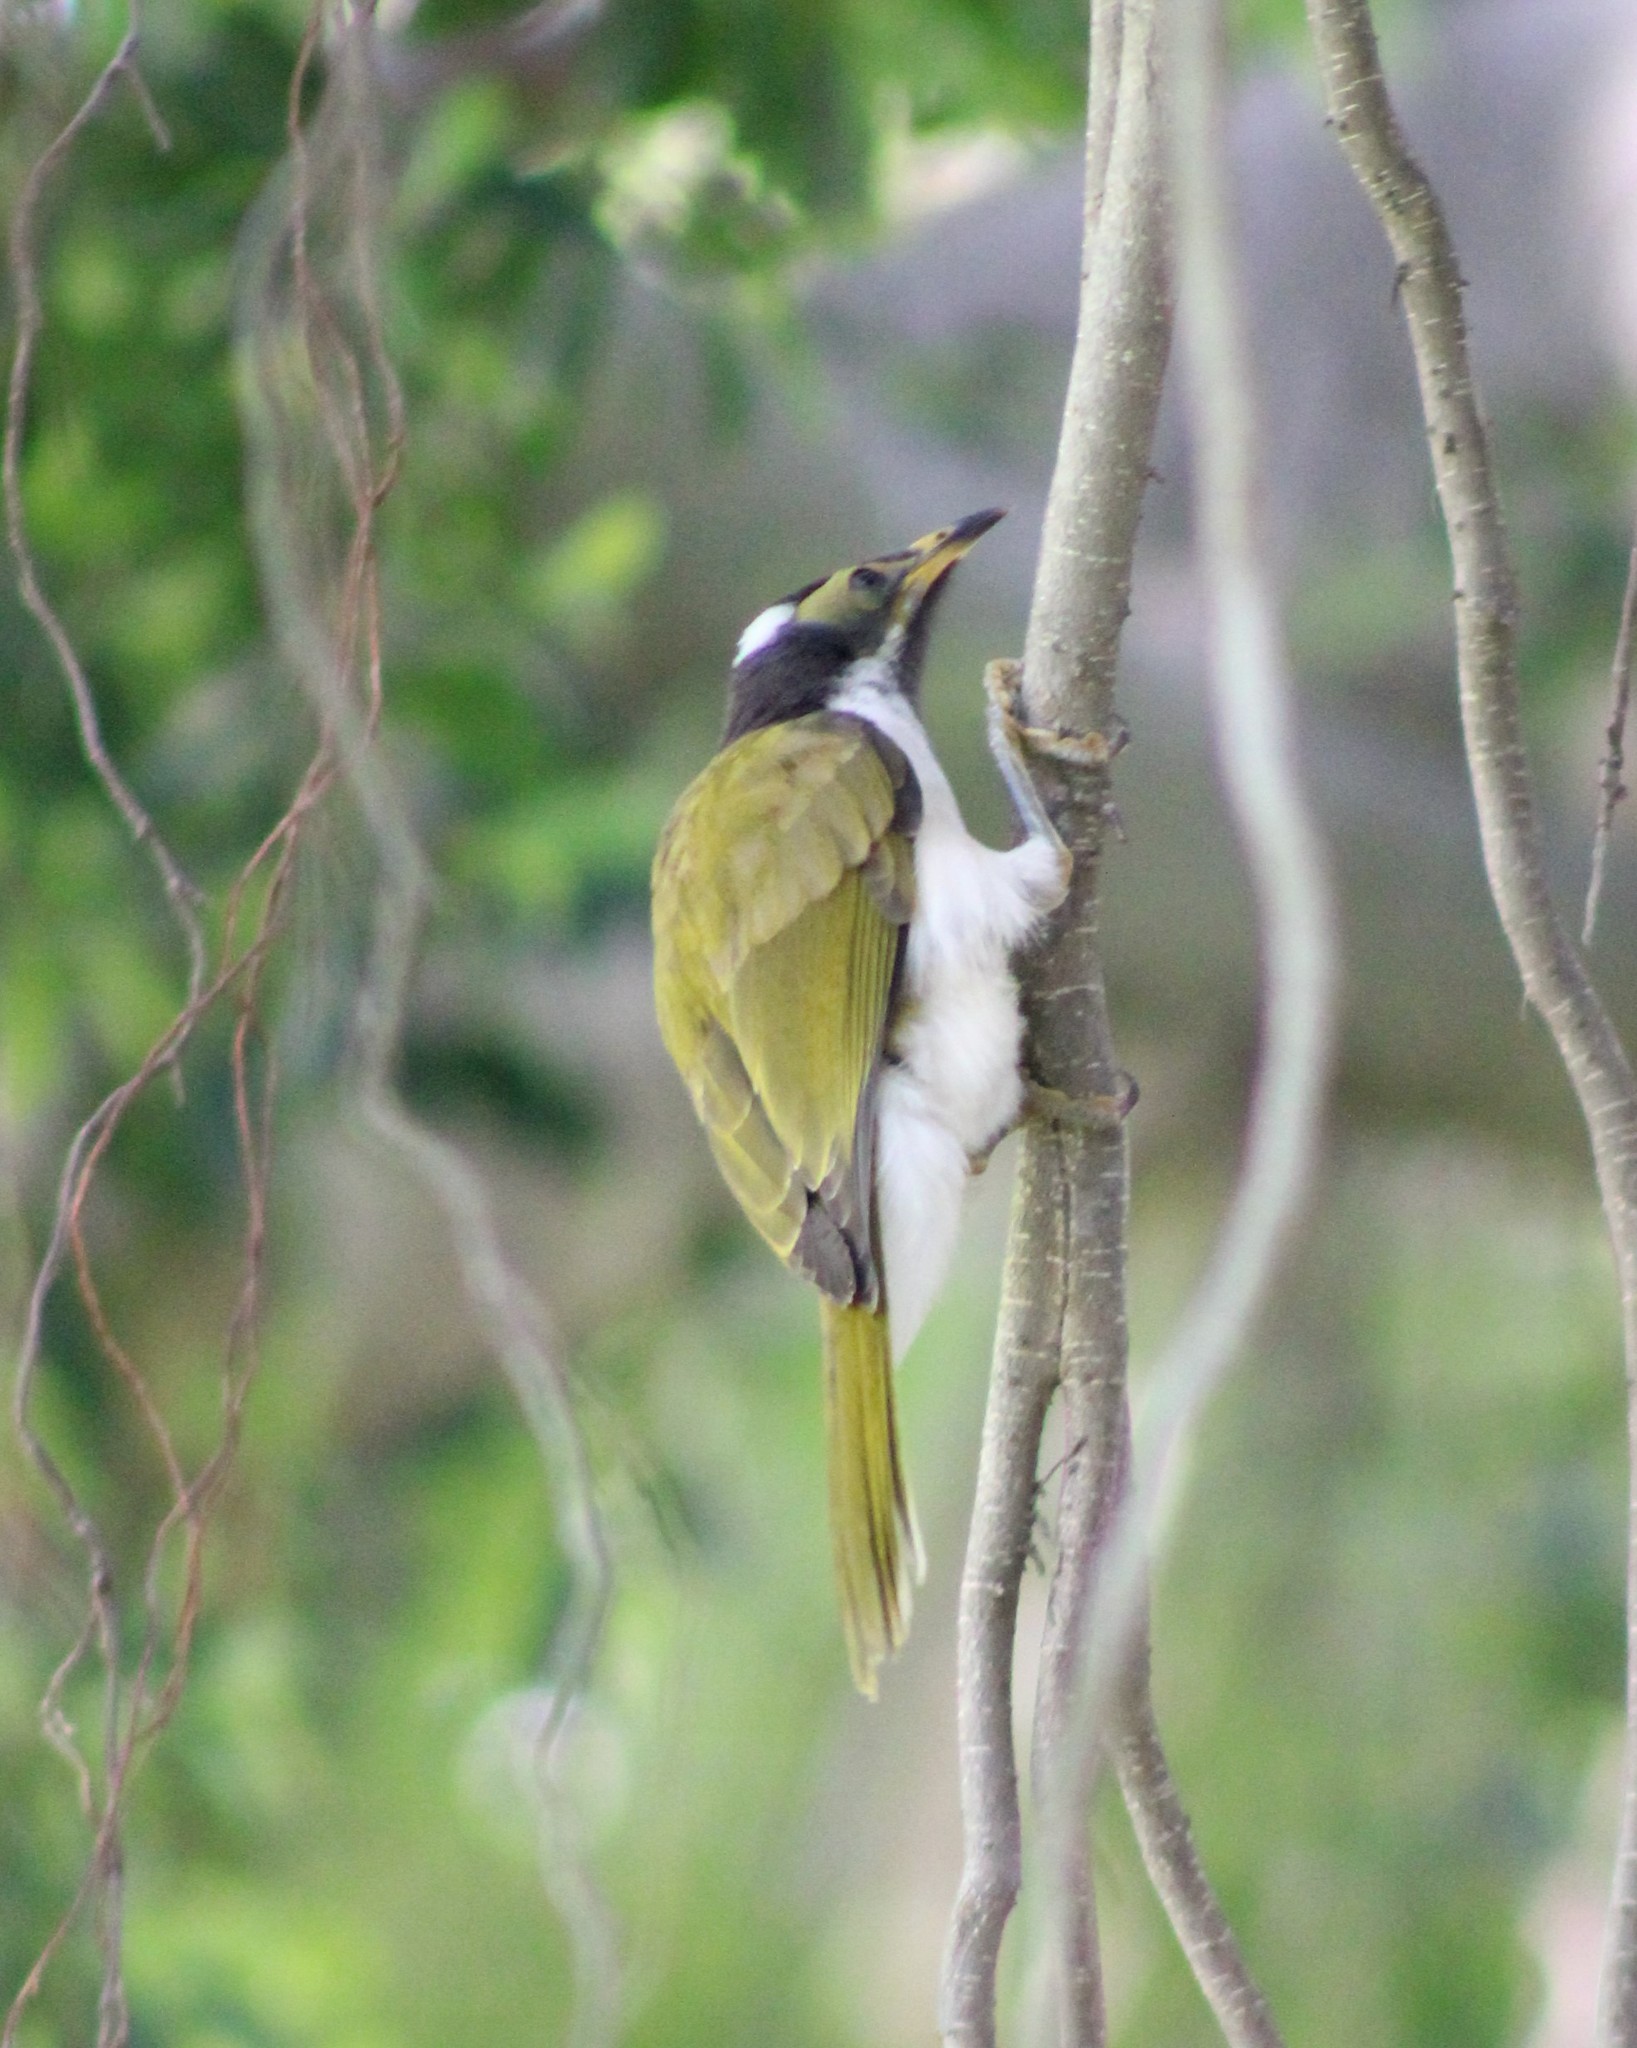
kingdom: Animalia
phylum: Chordata
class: Aves
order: Passeriformes
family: Meliphagidae
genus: Entomyzon
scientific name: Entomyzon cyanotis
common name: Blue-faced honeyeater
